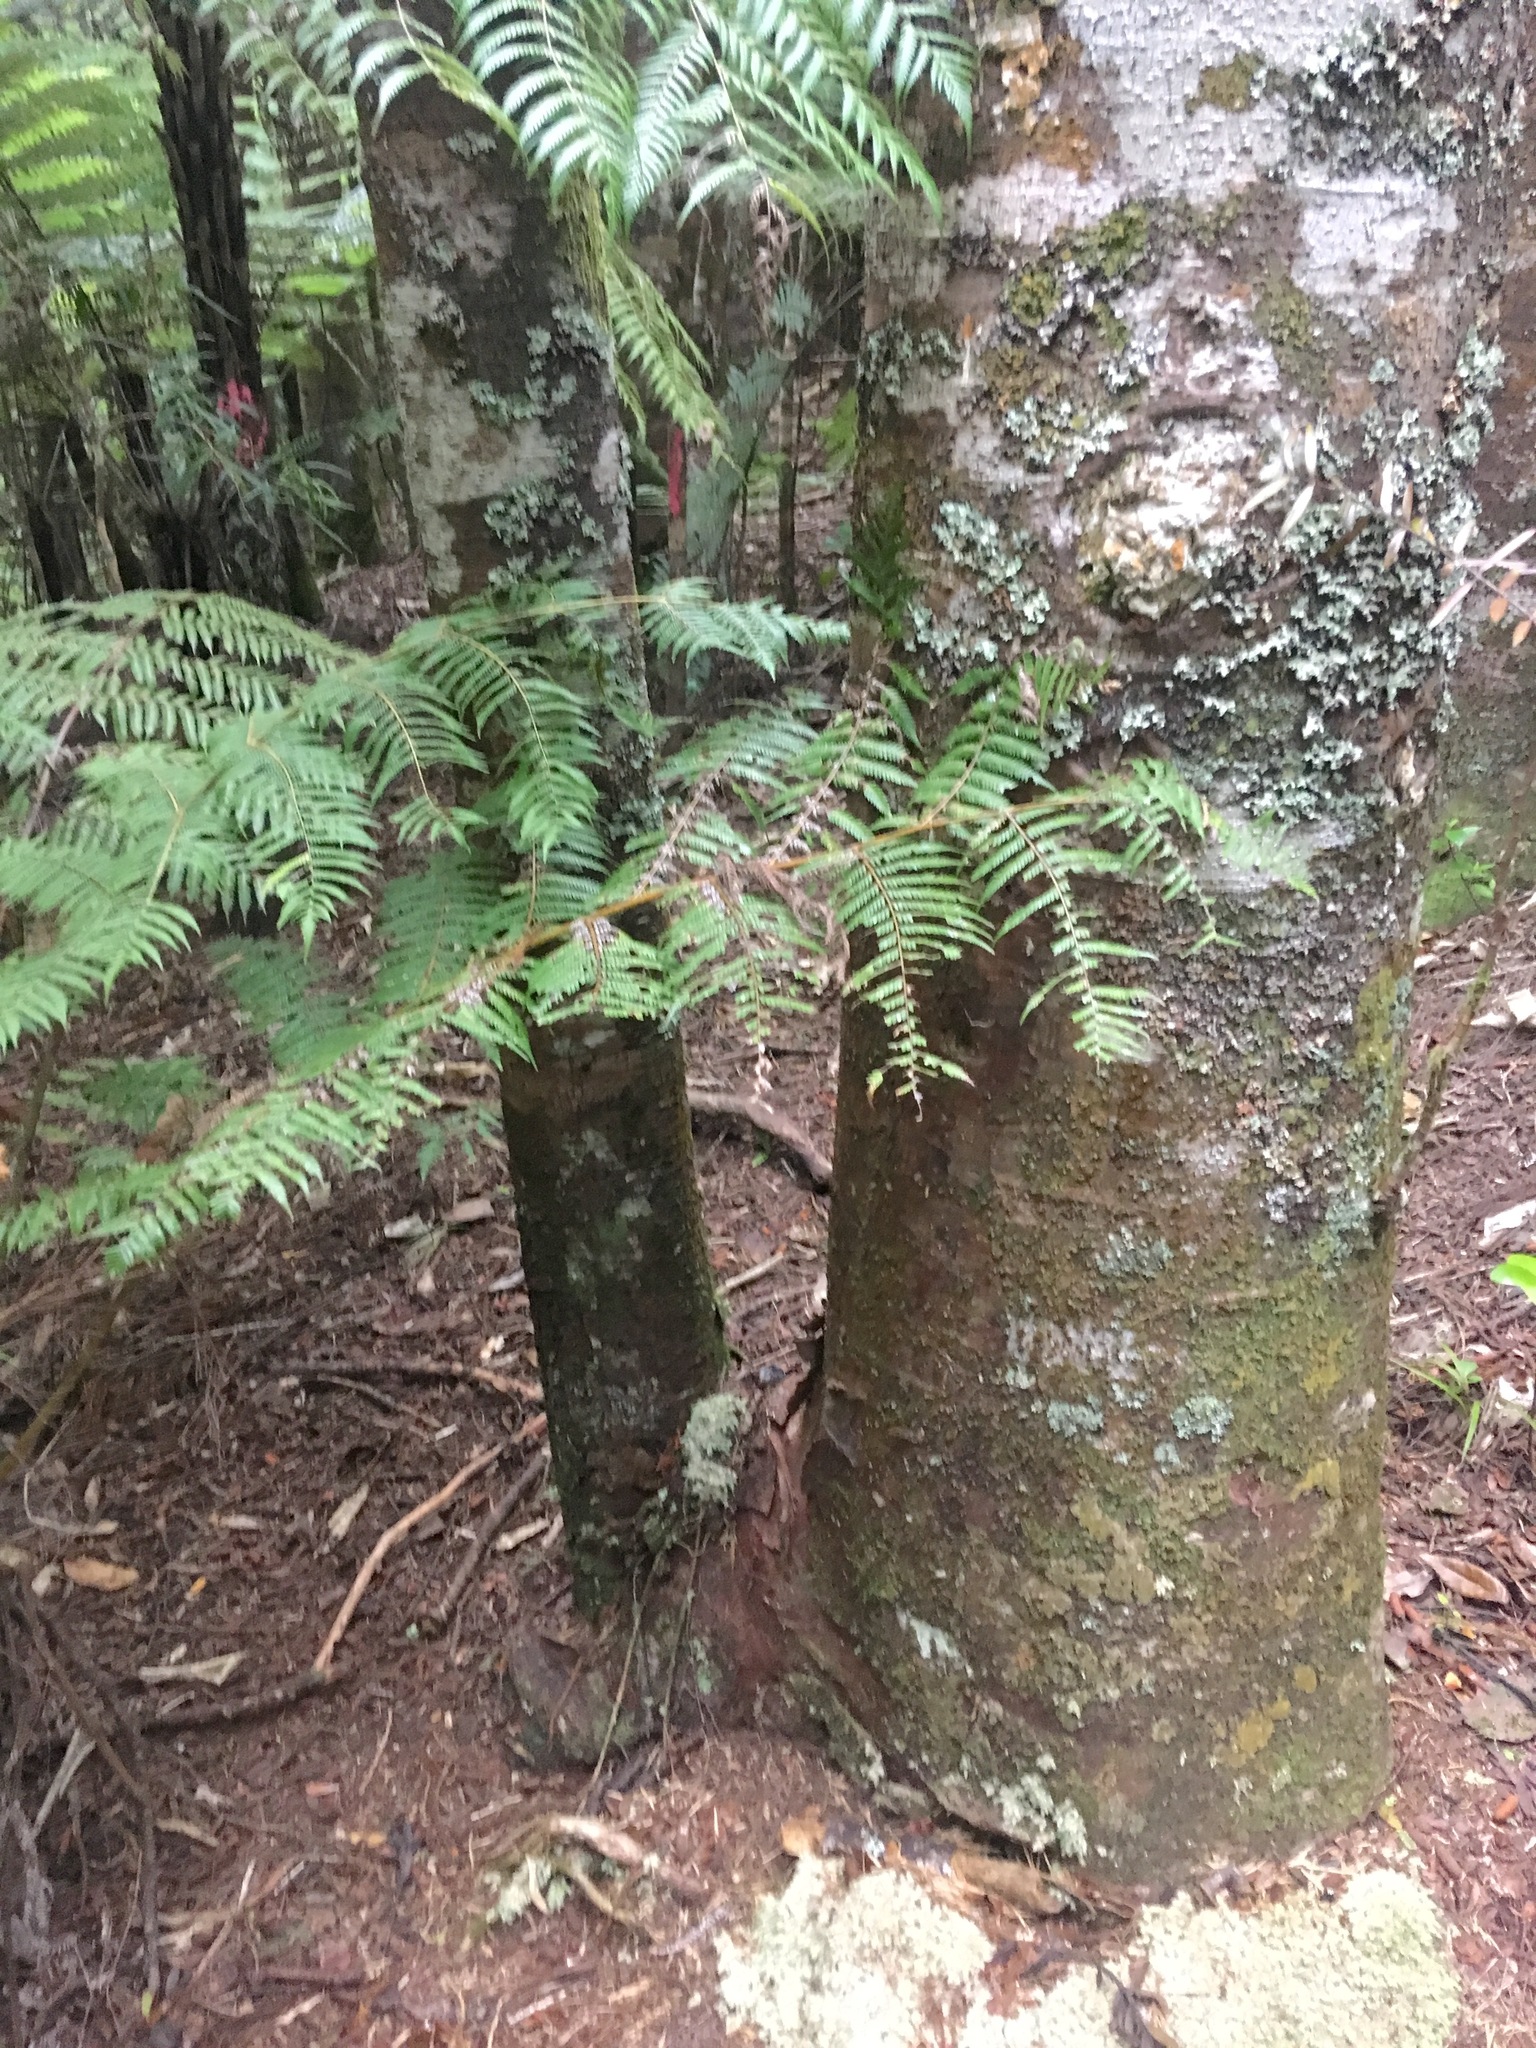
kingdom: Plantae
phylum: Tracheophyta
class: Pinopsida
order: Pinales
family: Araucariaceae
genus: Agathis
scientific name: Agathis australis
